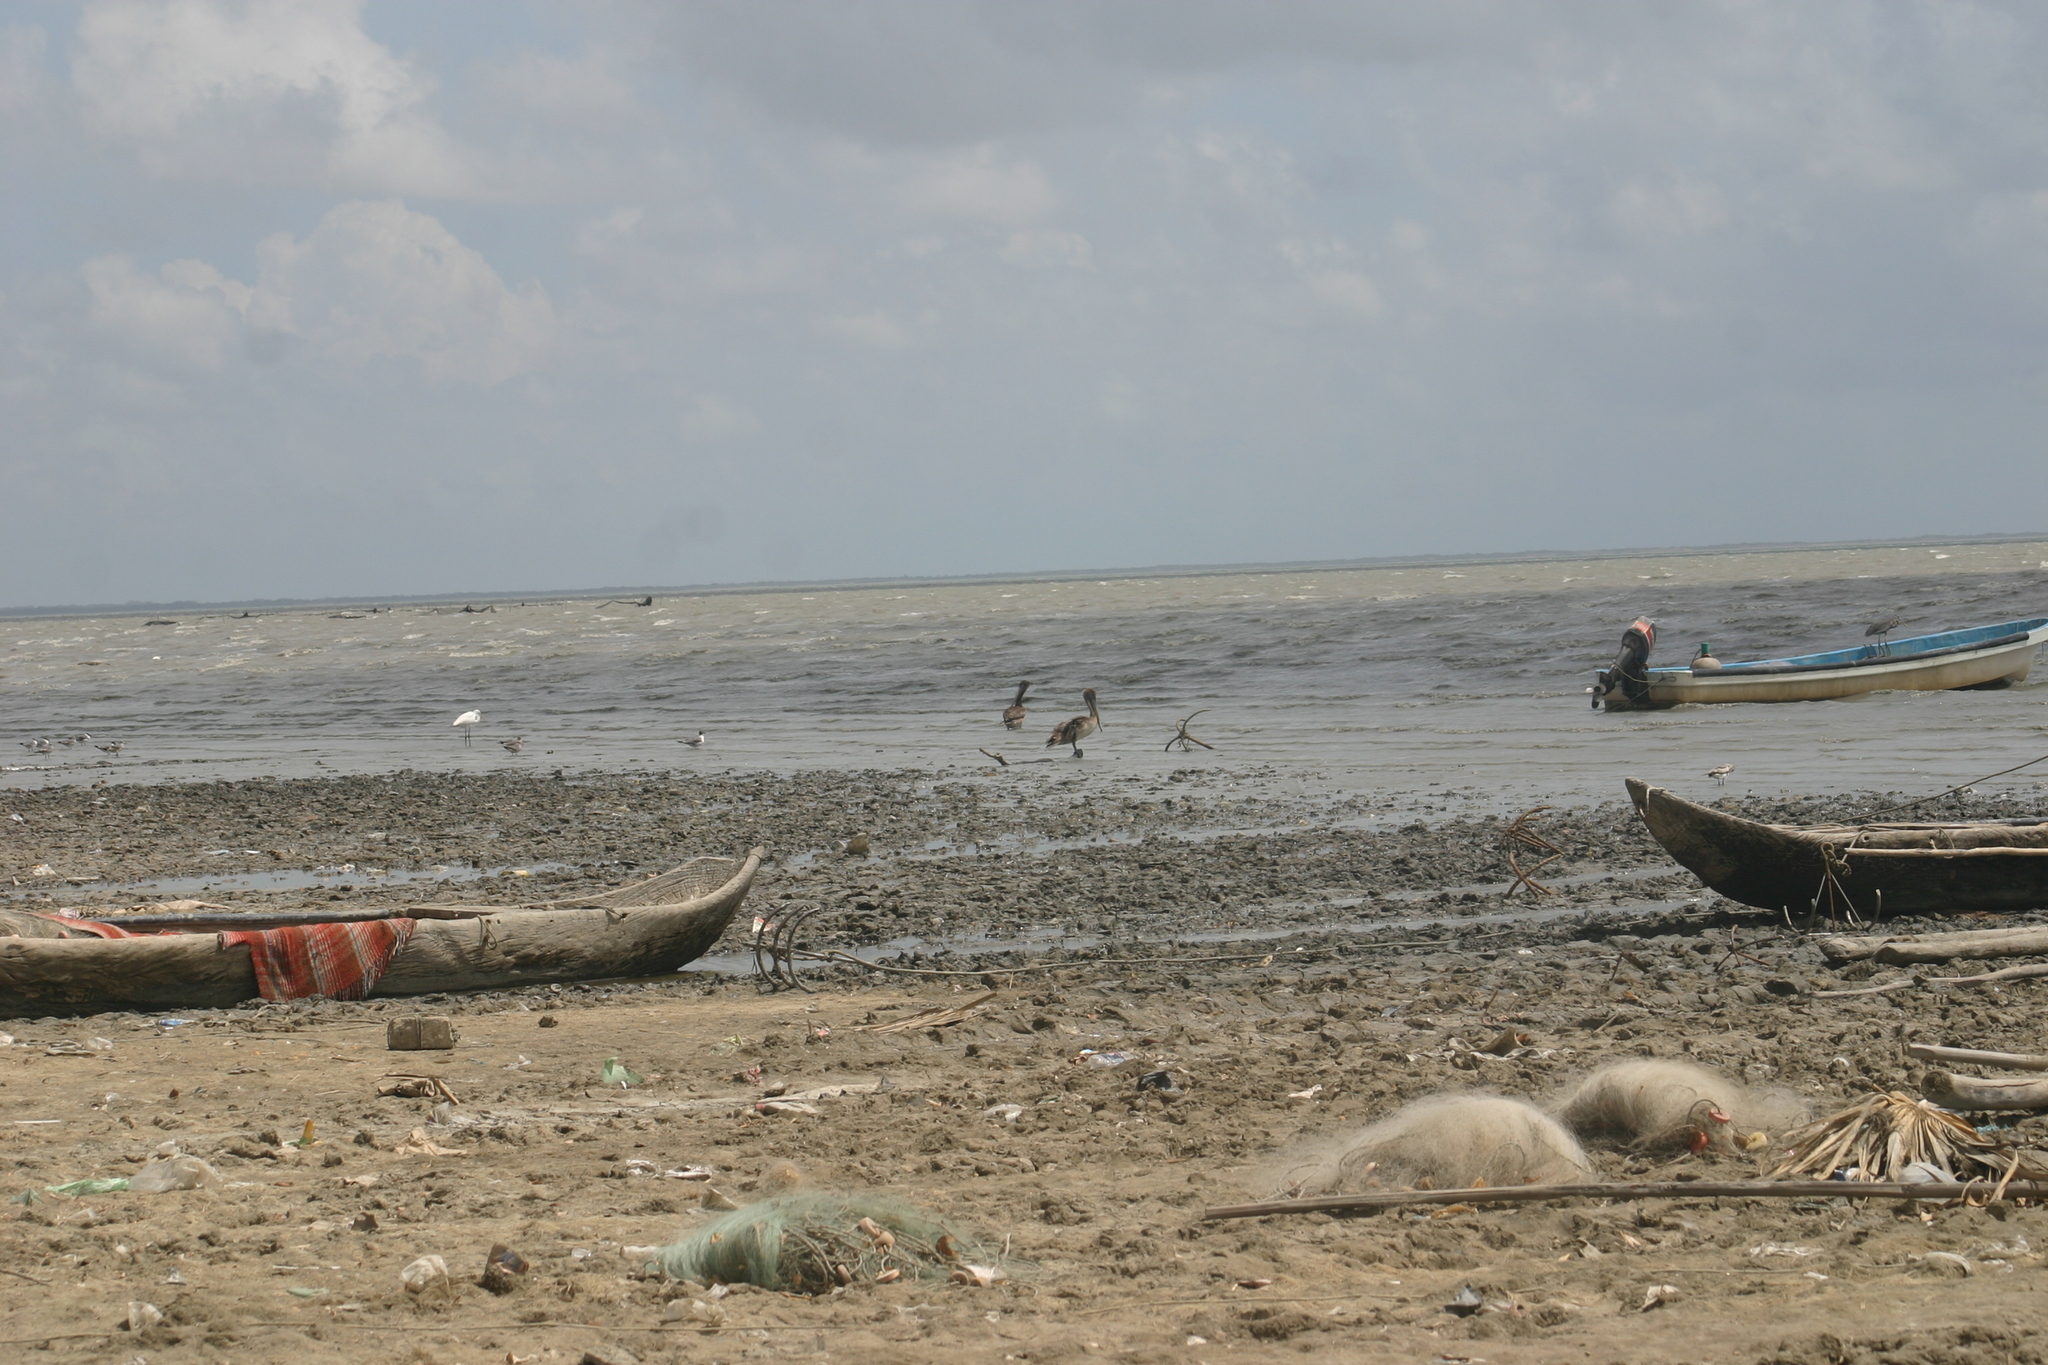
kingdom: Animalia
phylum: Chordata
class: Aves
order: Pelecaniformes
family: Pelecanidae
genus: Pelecanus
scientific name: Pelecanus occidentalis
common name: Brown pelican
